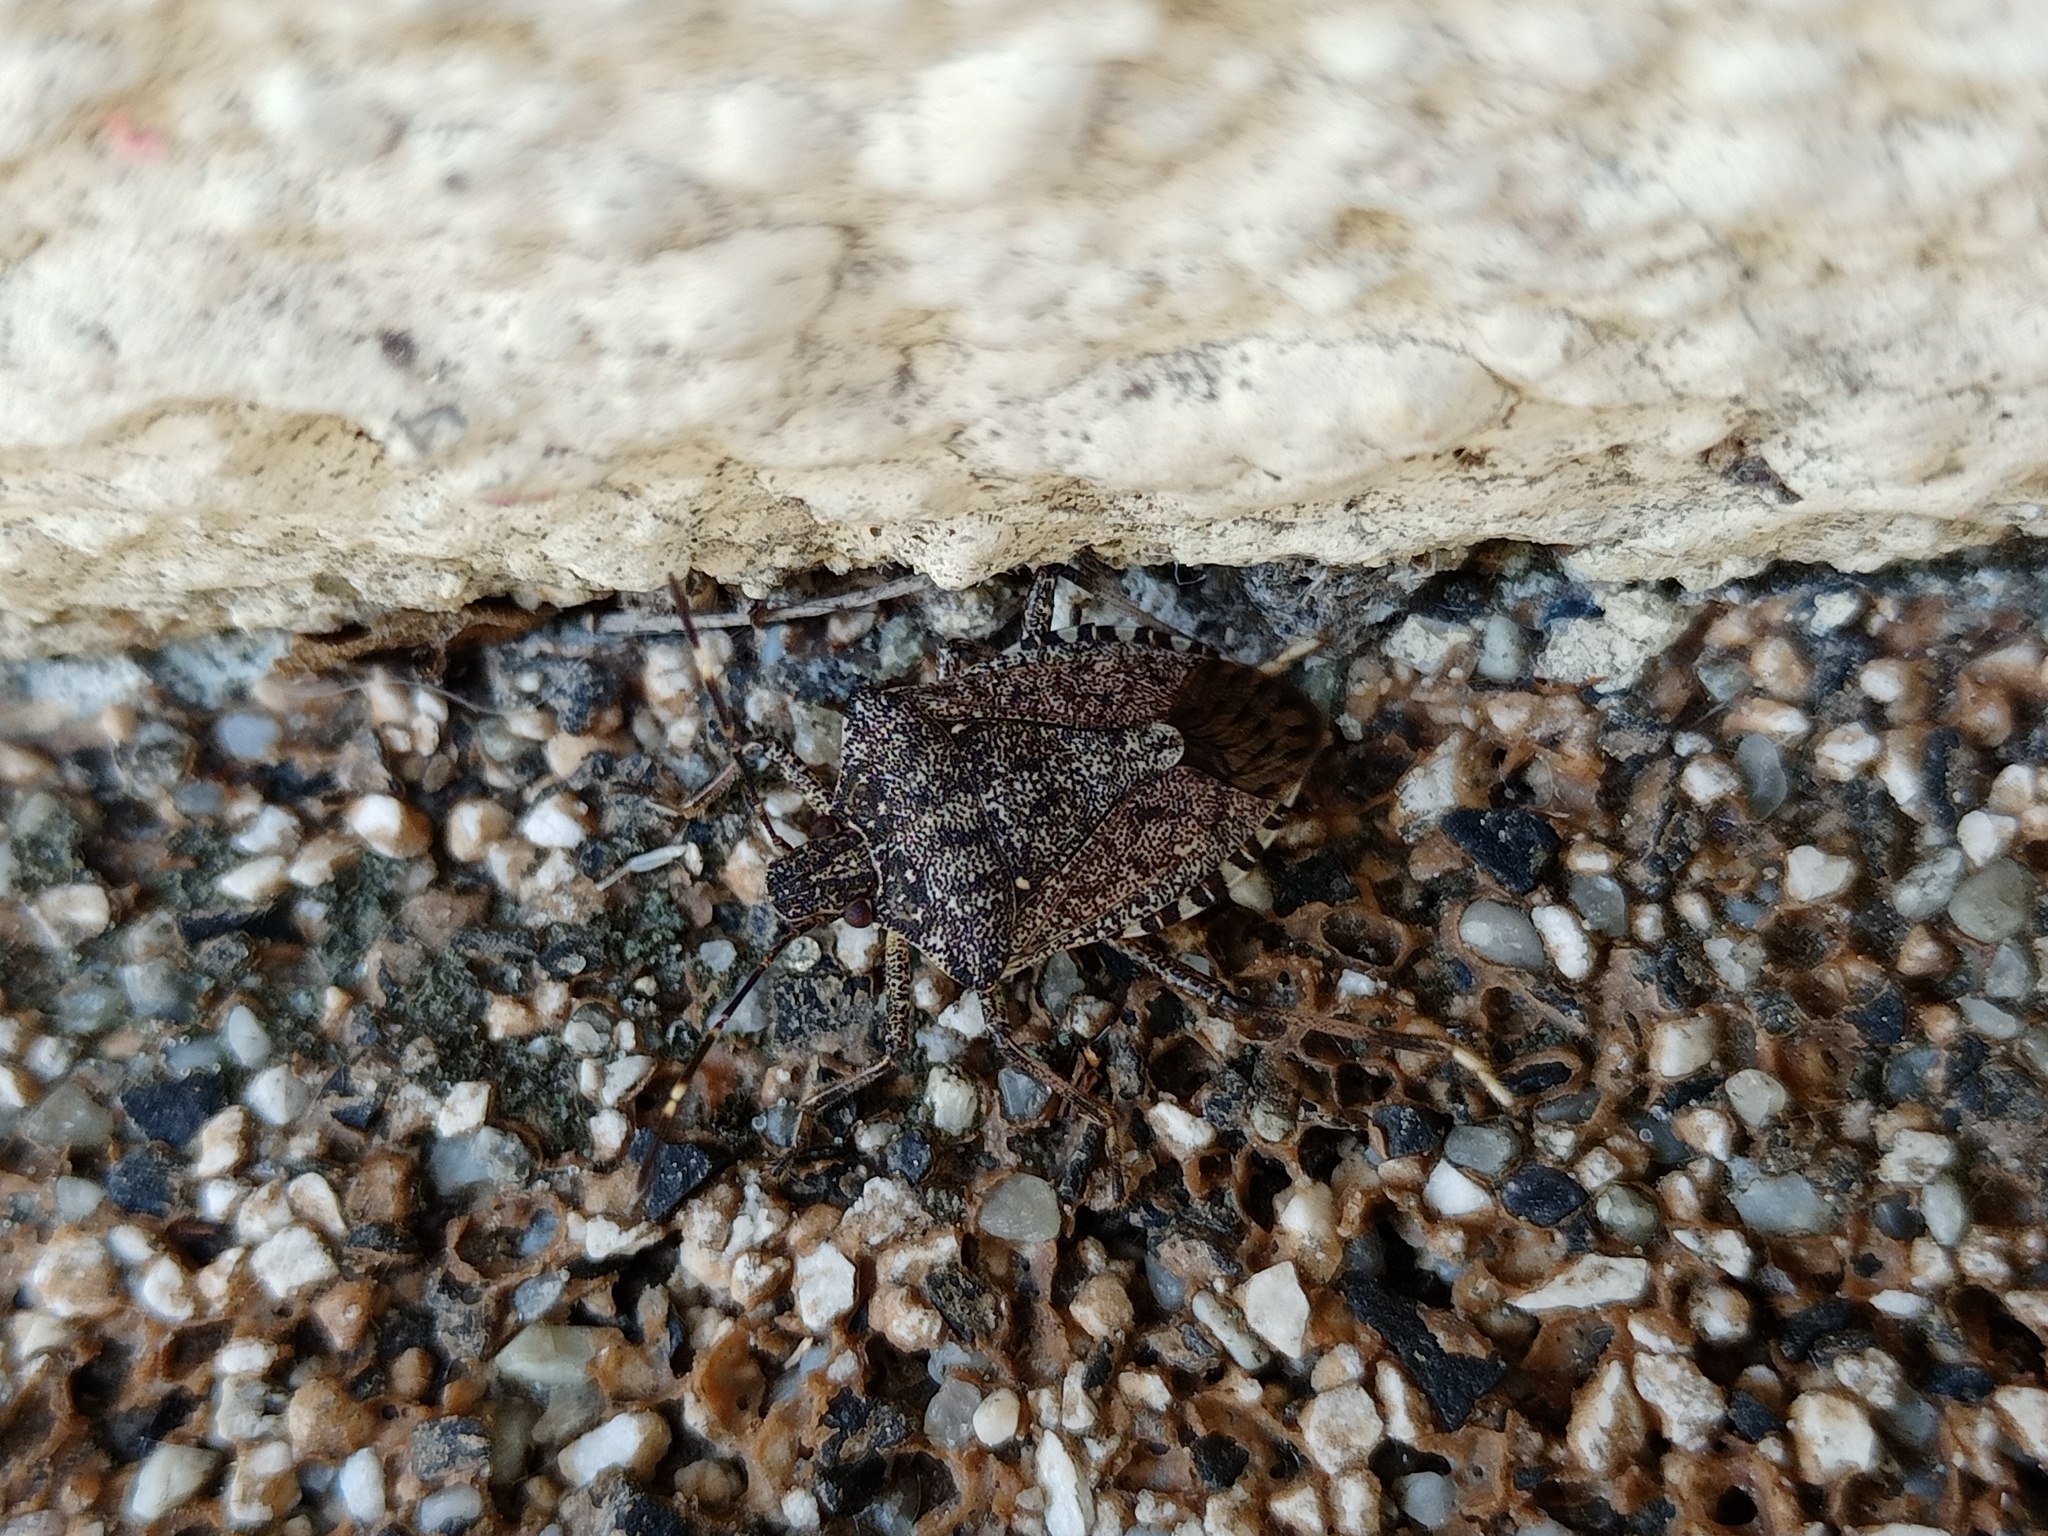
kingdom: Animalia
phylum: Arthropoda
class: Insecta
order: Hemiptera
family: Pentatomidae
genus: Halyomorpha
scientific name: Halyomorpha halys
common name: Brown marmorated stink bug
